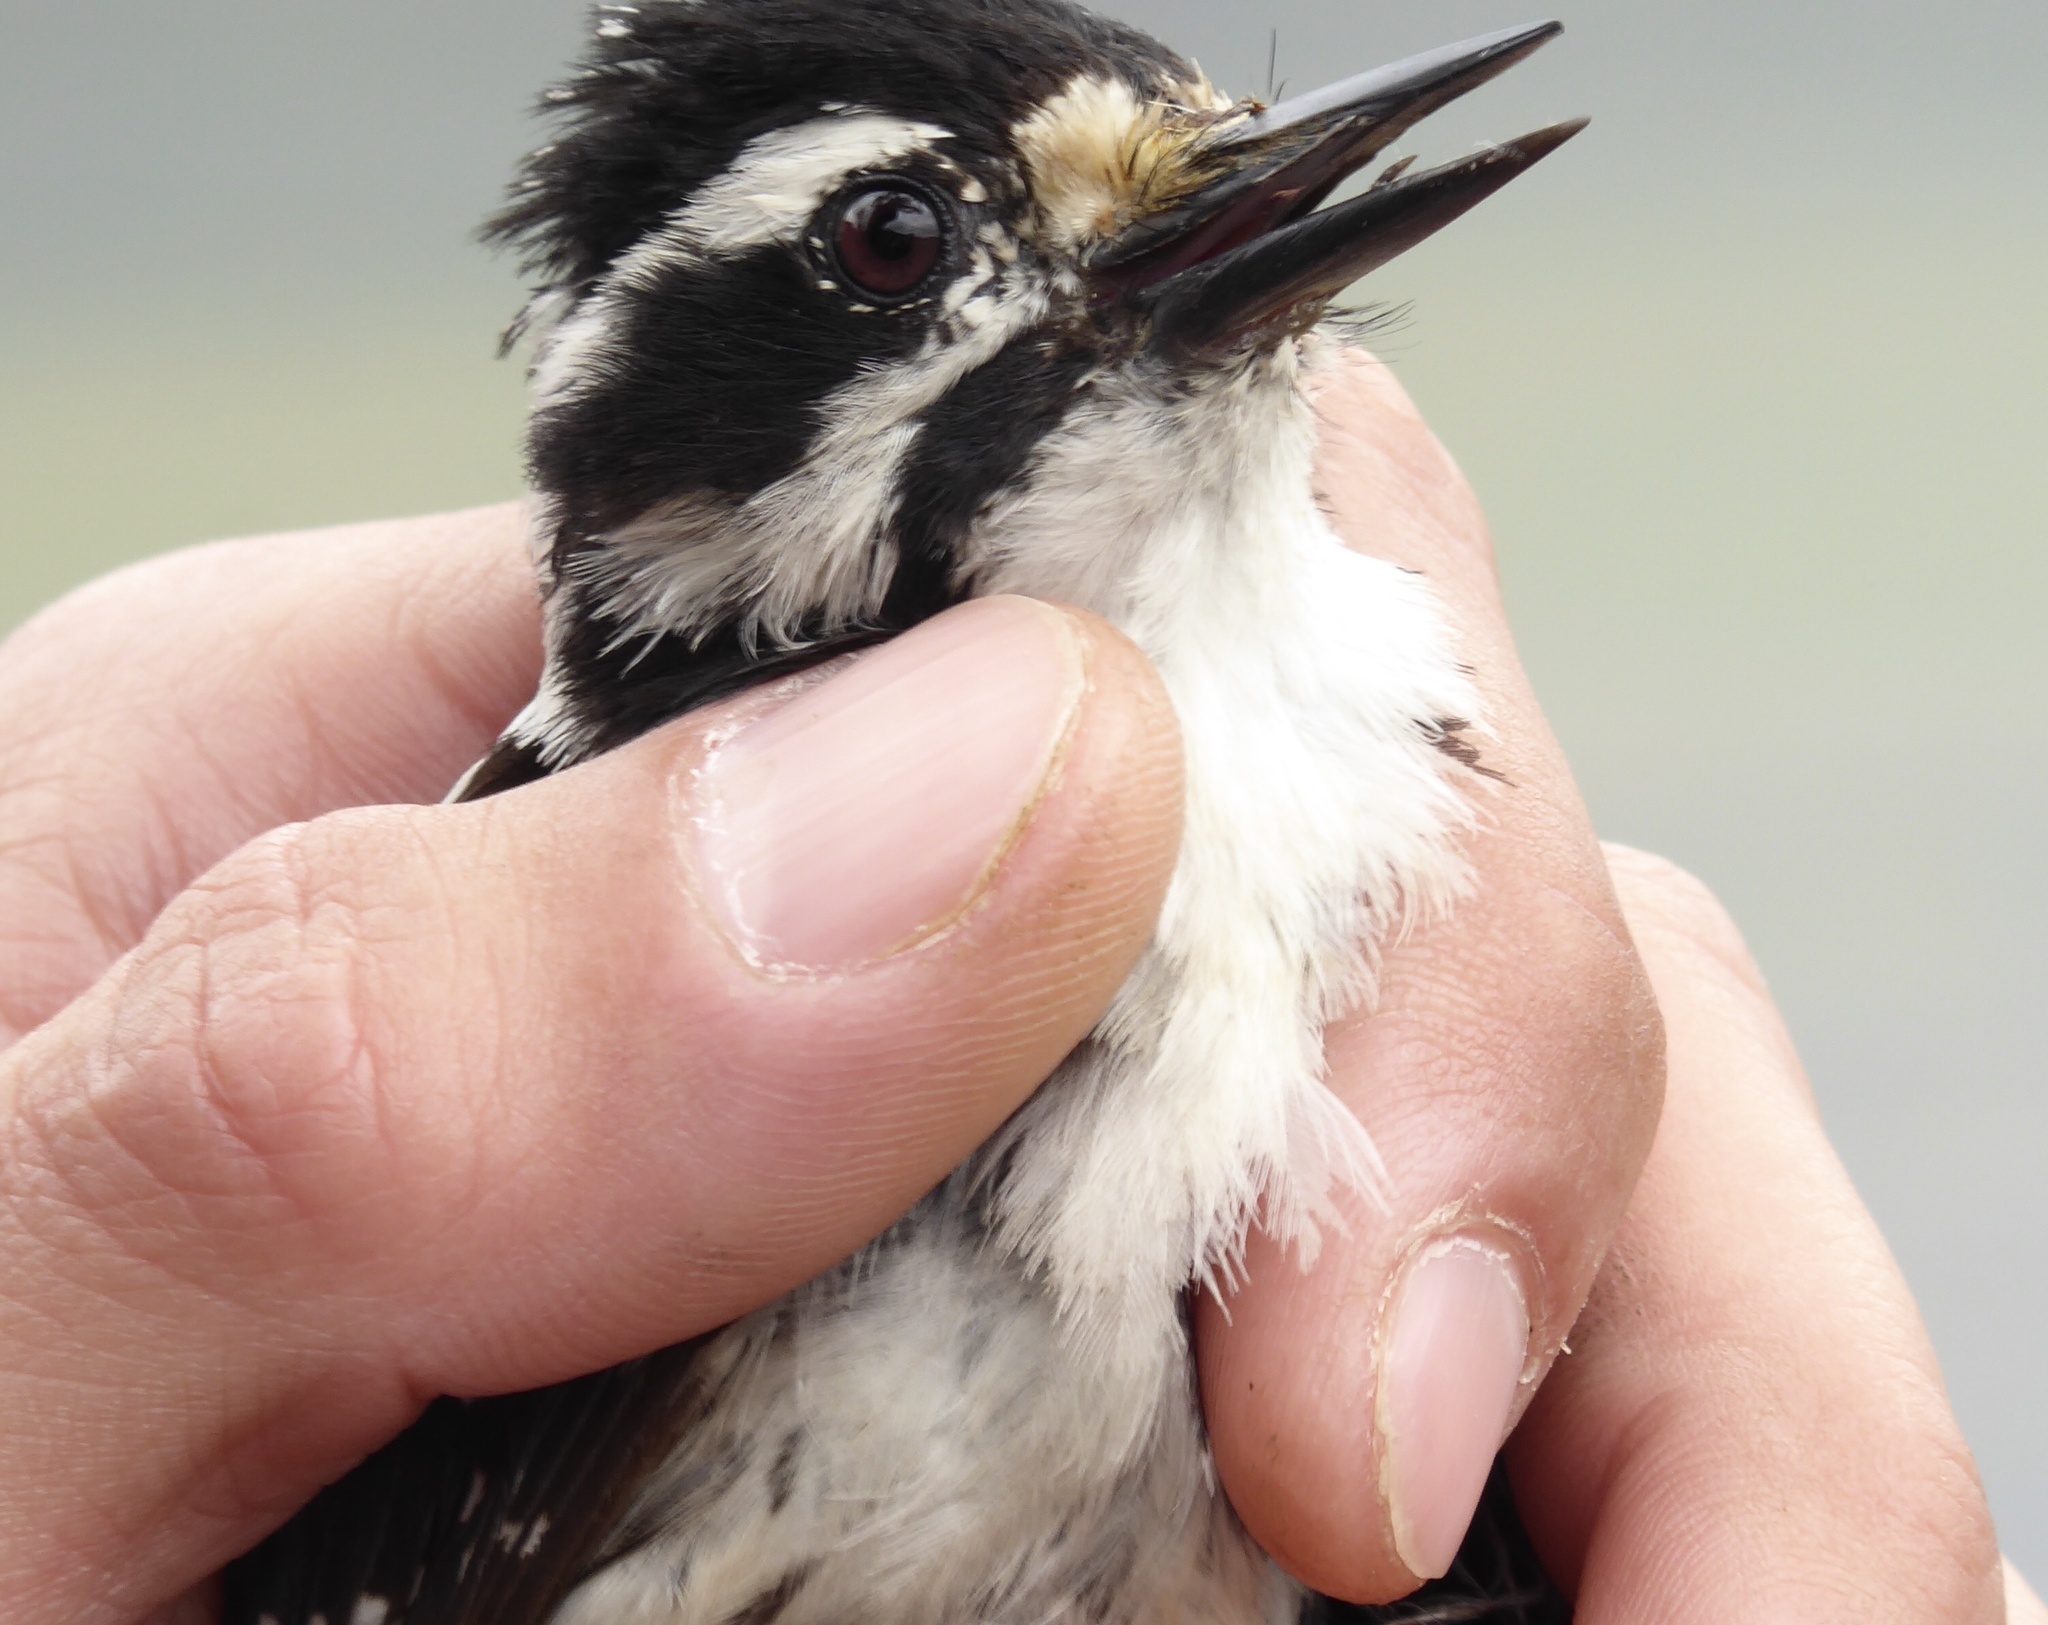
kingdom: Animalia
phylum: Chordata
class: Aves
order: Piciformes
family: Picidae
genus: Dryobates
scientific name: Dryobates nuttallii
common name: Nuttall's woodpecker
